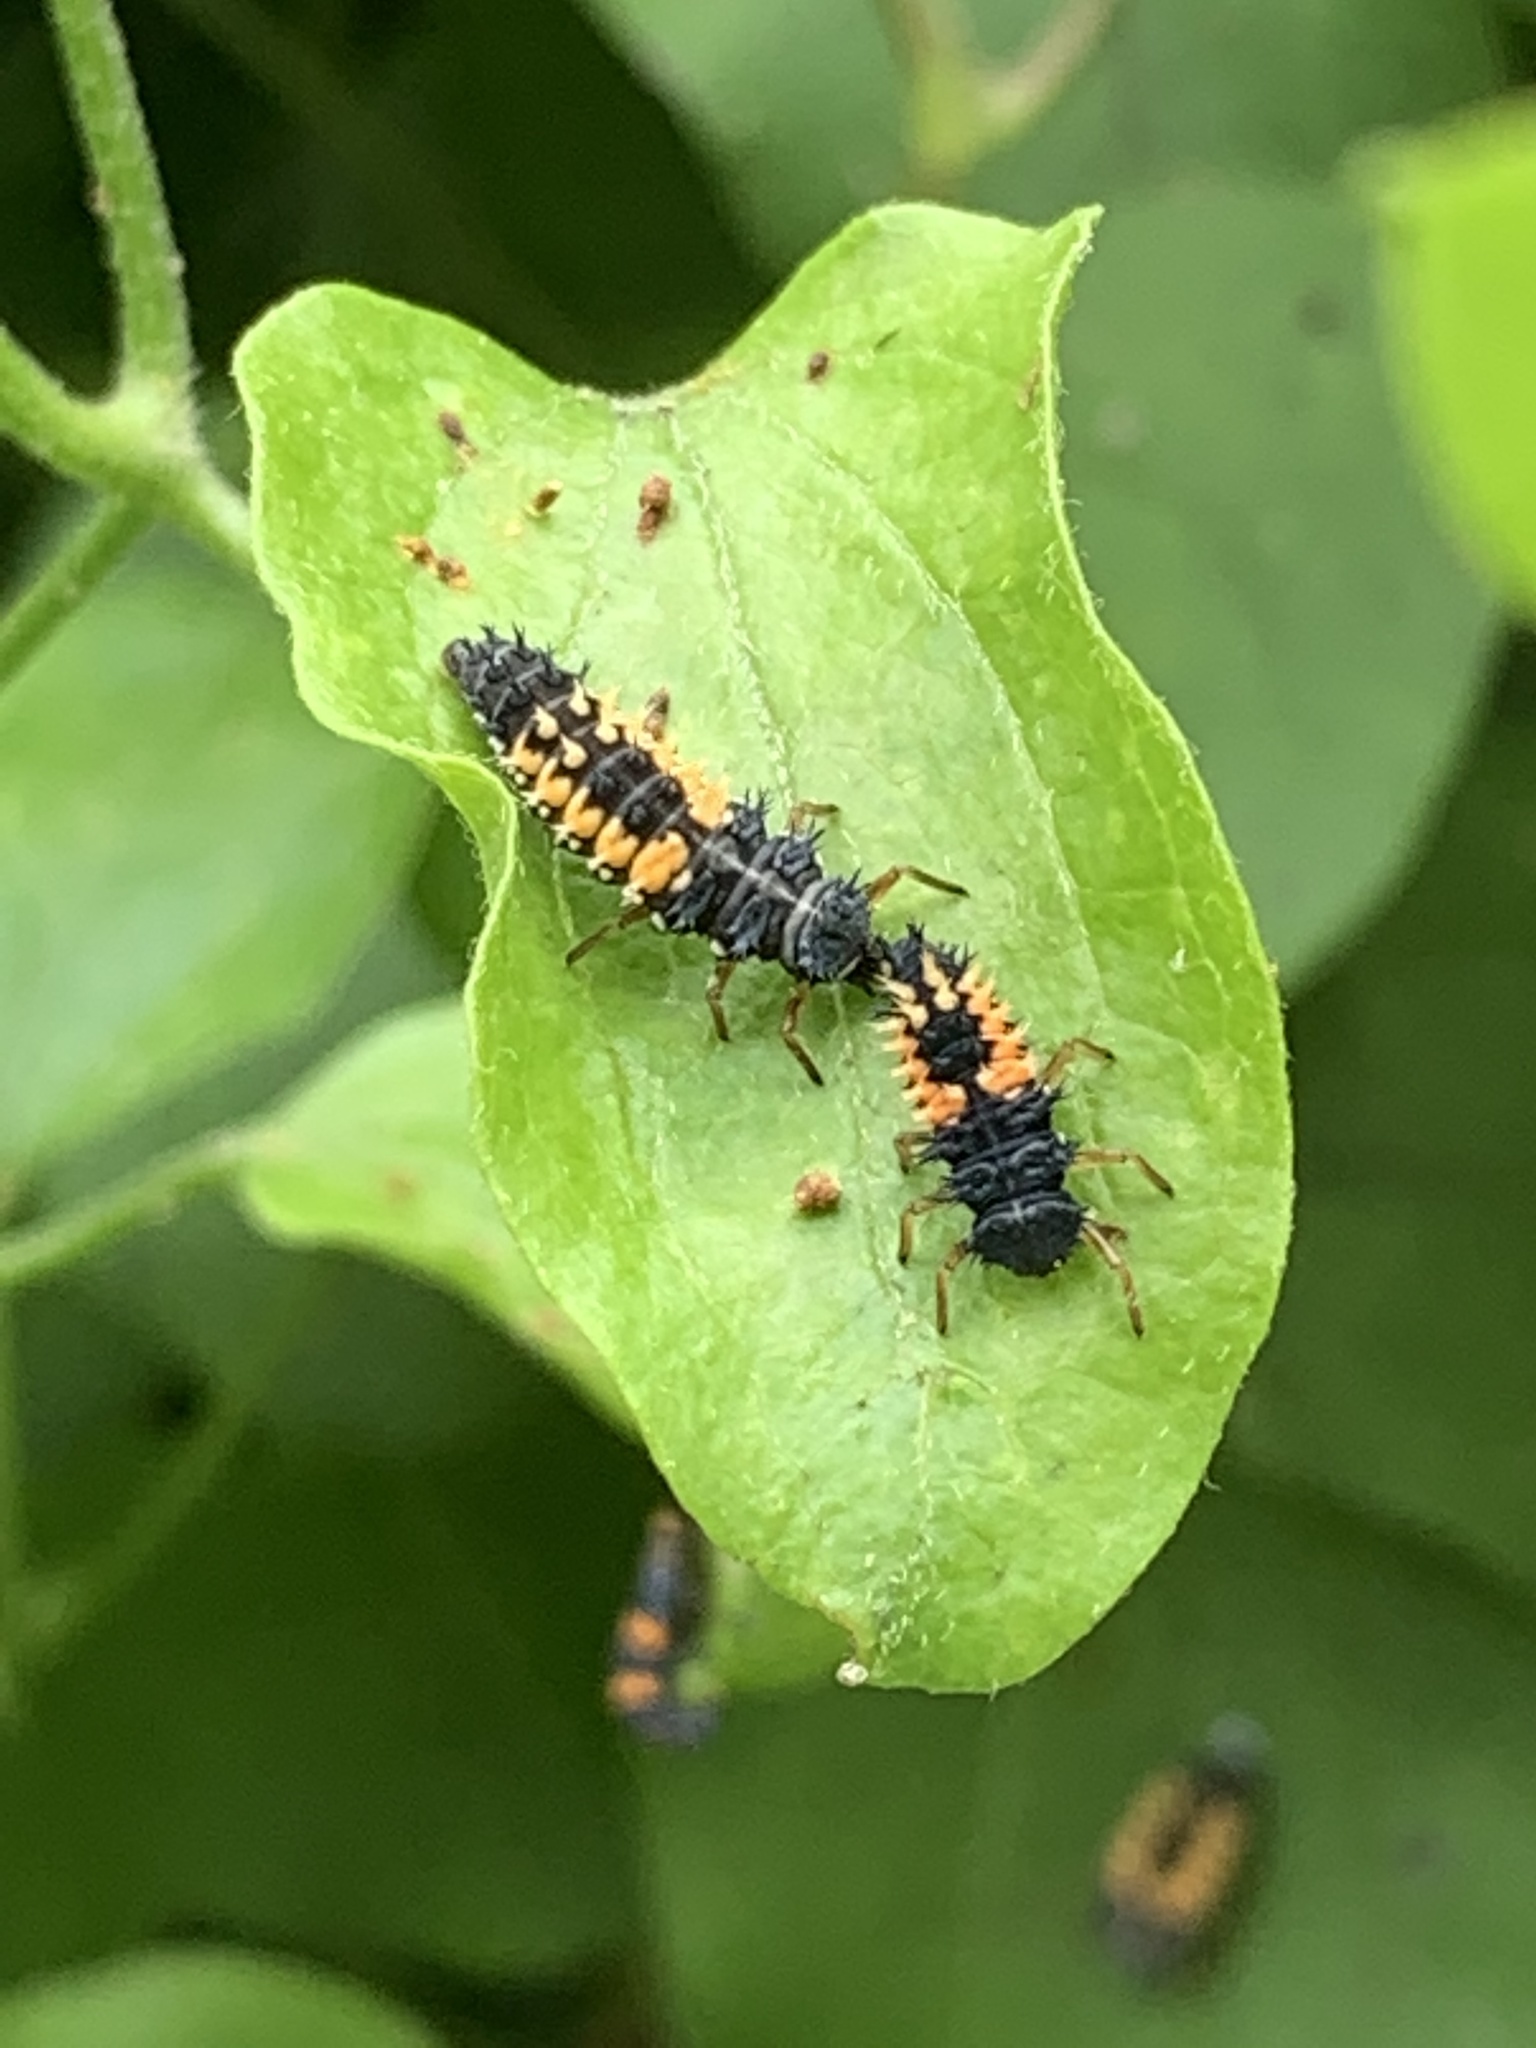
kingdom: Animalia
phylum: Arthropoda
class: Insecta
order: Coleoptera
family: Coccinellidae
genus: Harmonia
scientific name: Harmonia axyridis
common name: Harlequin ladybird
